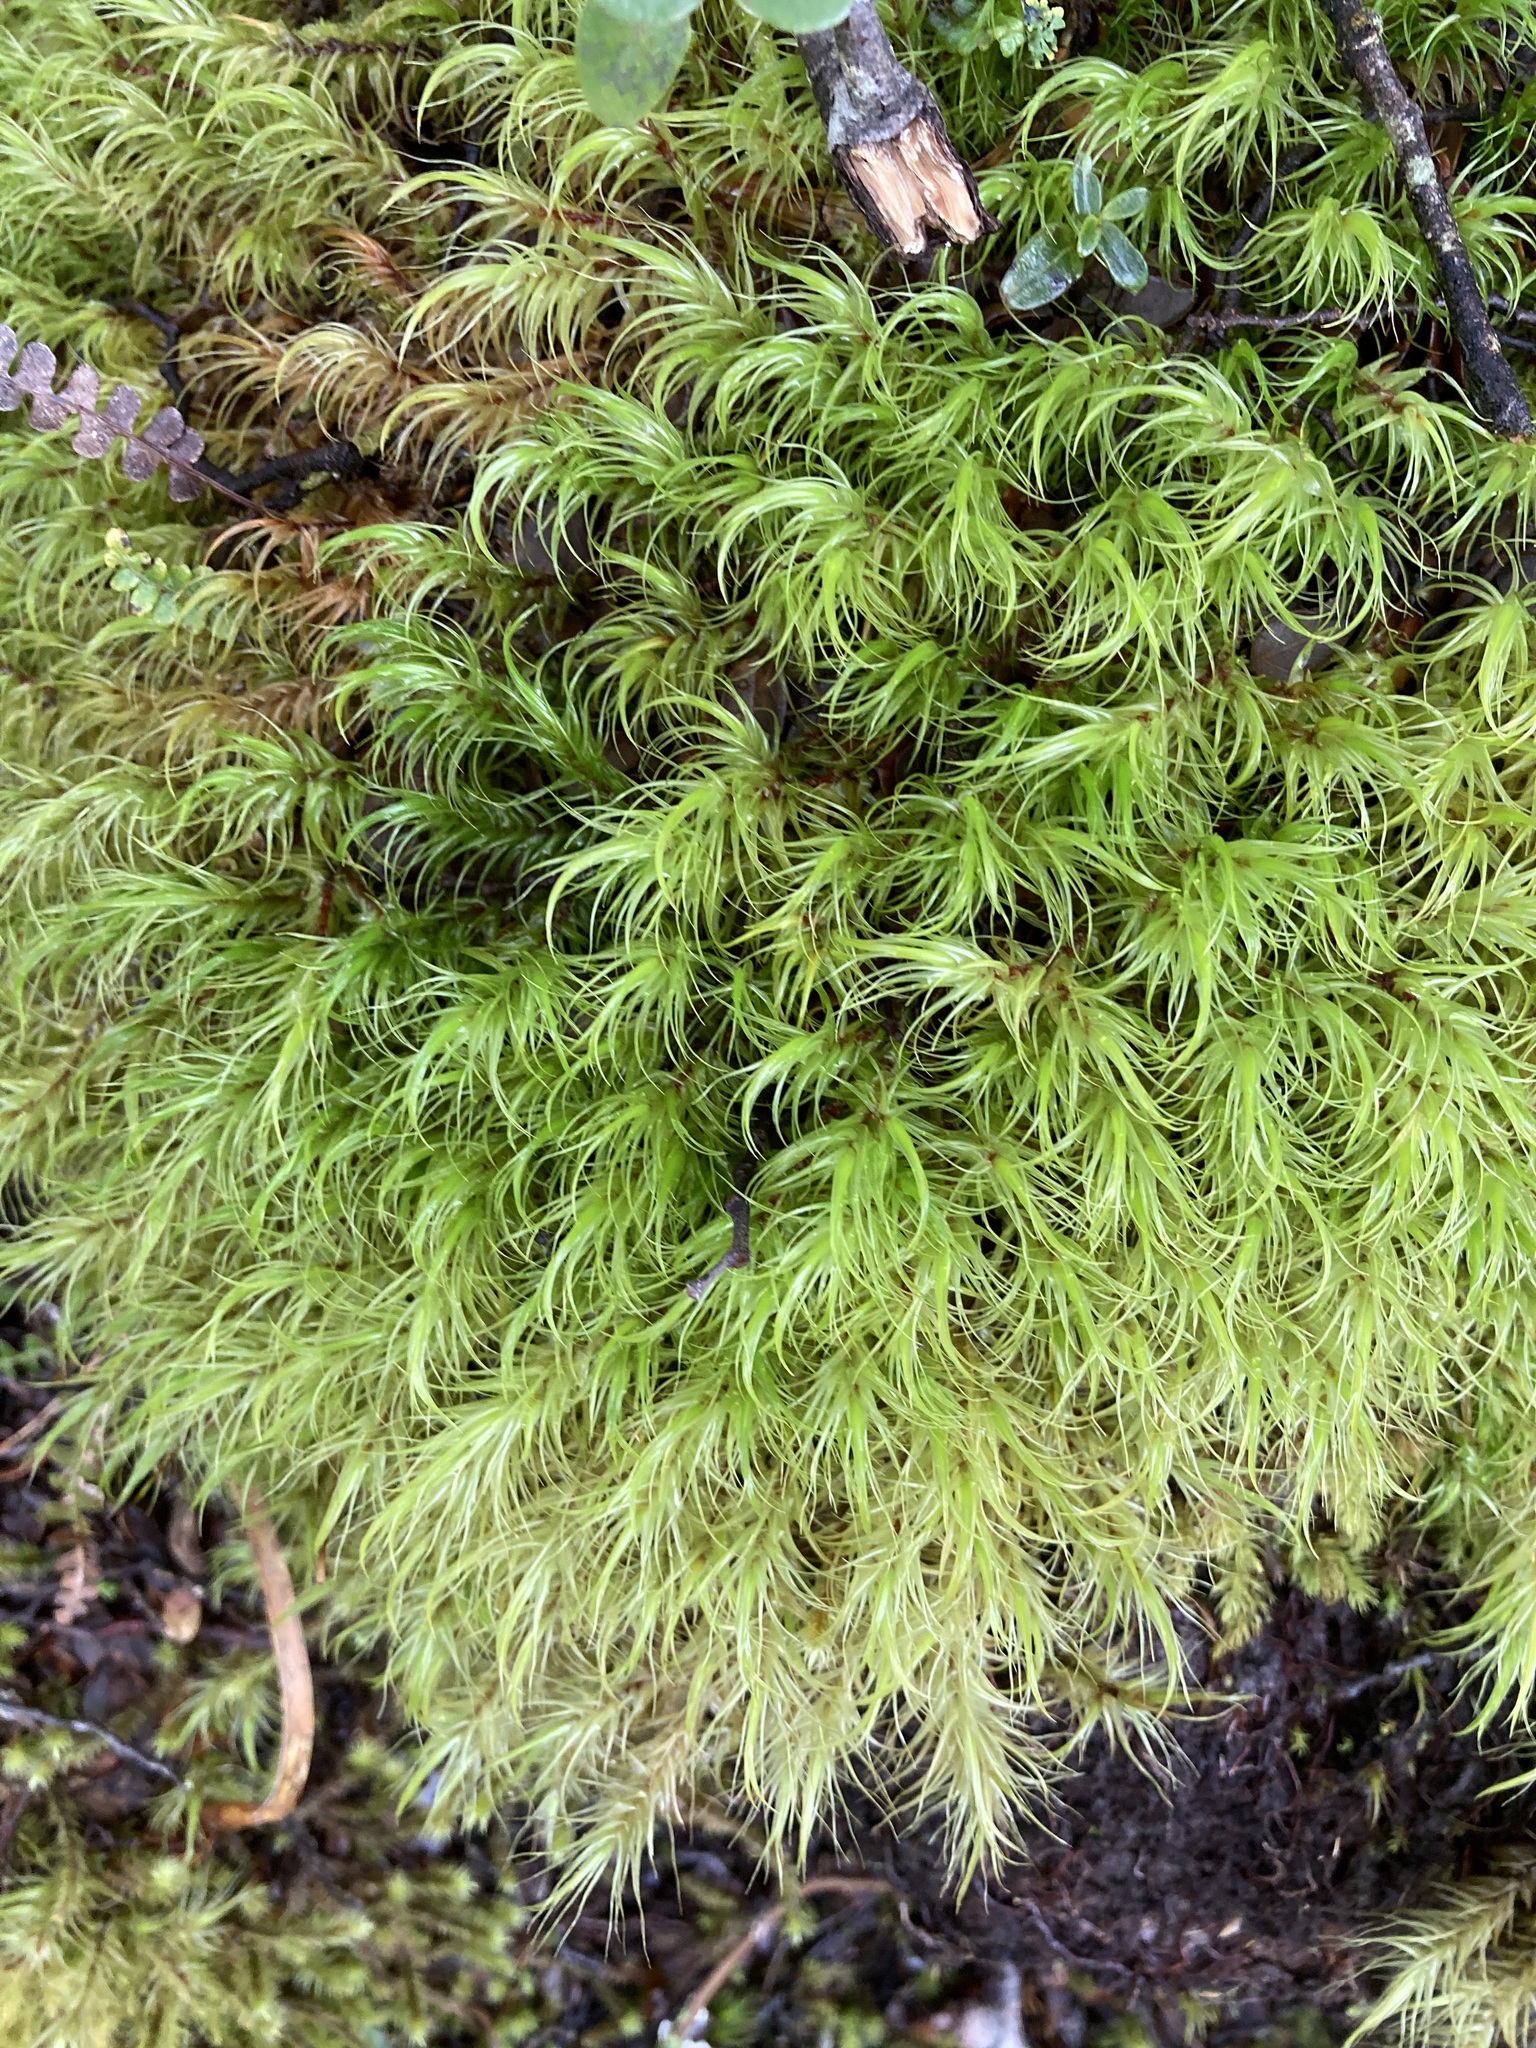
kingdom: Plantae
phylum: Bryophyta
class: Bryopsida
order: Dicranales
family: Dicranaceae
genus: Dicranoloma
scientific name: Dicranoloma menziesii
